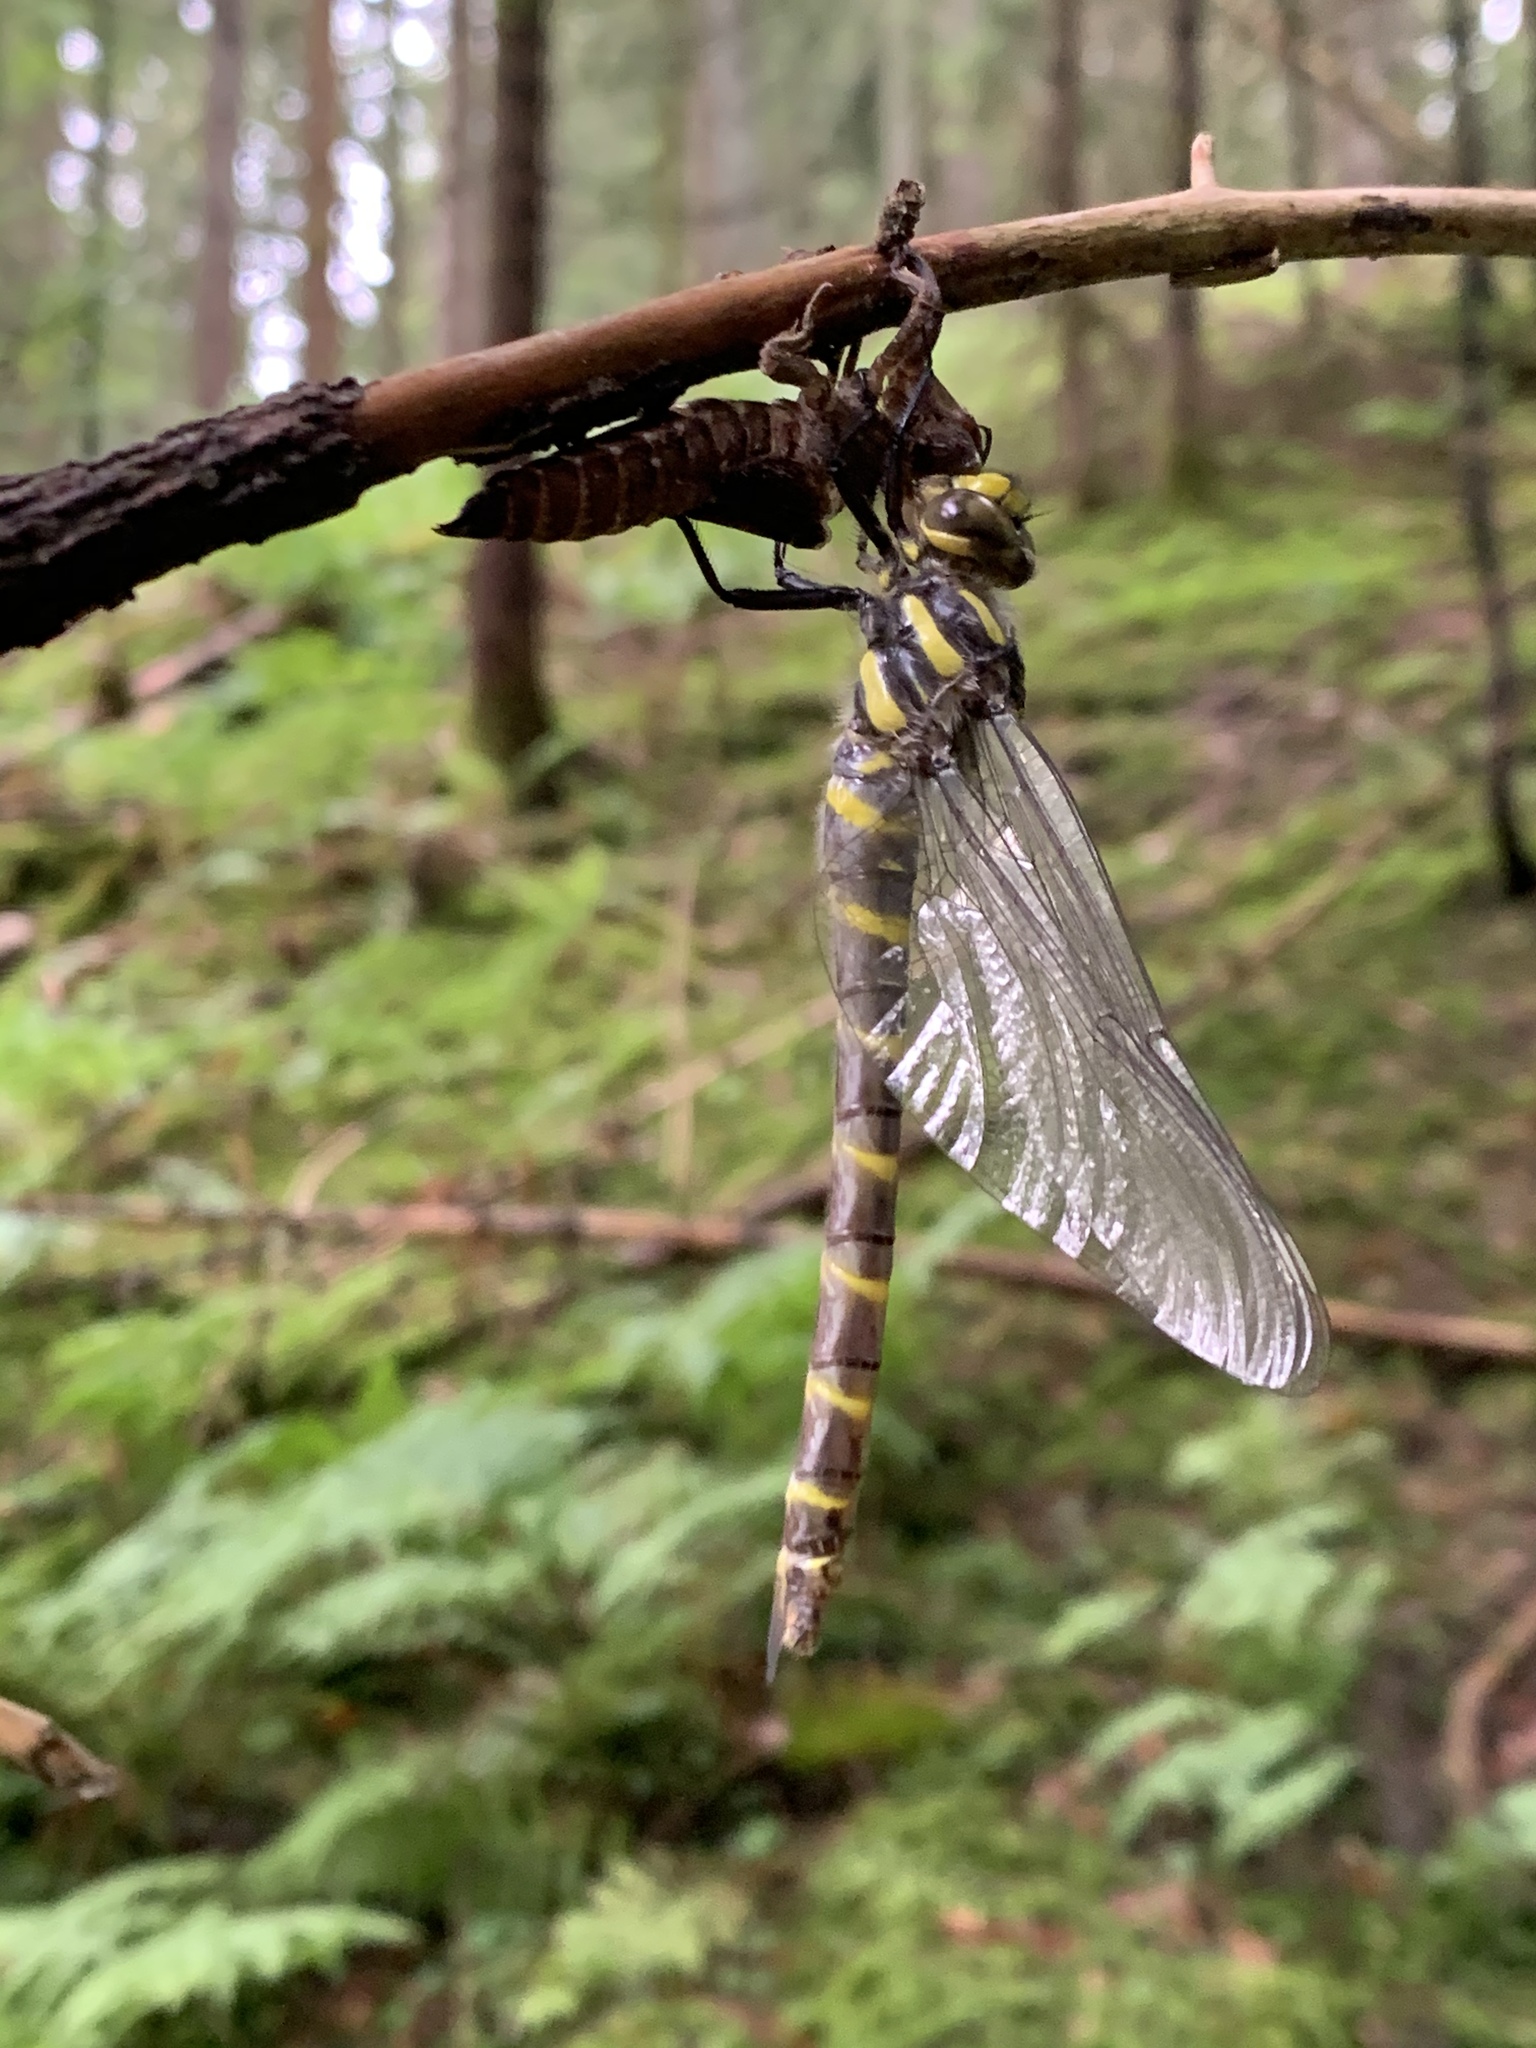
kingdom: Animalia
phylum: Arthropoda
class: Insecta
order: Odonata
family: Cordulegastridae
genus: Cordulegaster
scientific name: Cordulegaster bidentata
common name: Sombre goldenring
